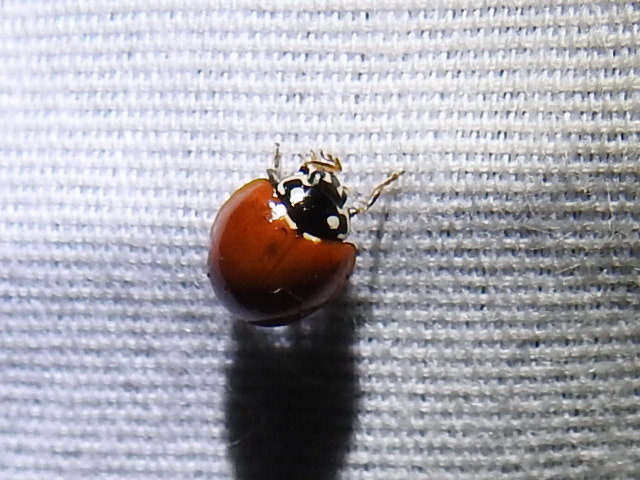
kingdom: Animalia
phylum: Arthropoda
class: Insecta
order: Coleoptera
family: Coccinellidae
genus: Cycloneda
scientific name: Cycloneda sanguinea
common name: Ladybird beetle
